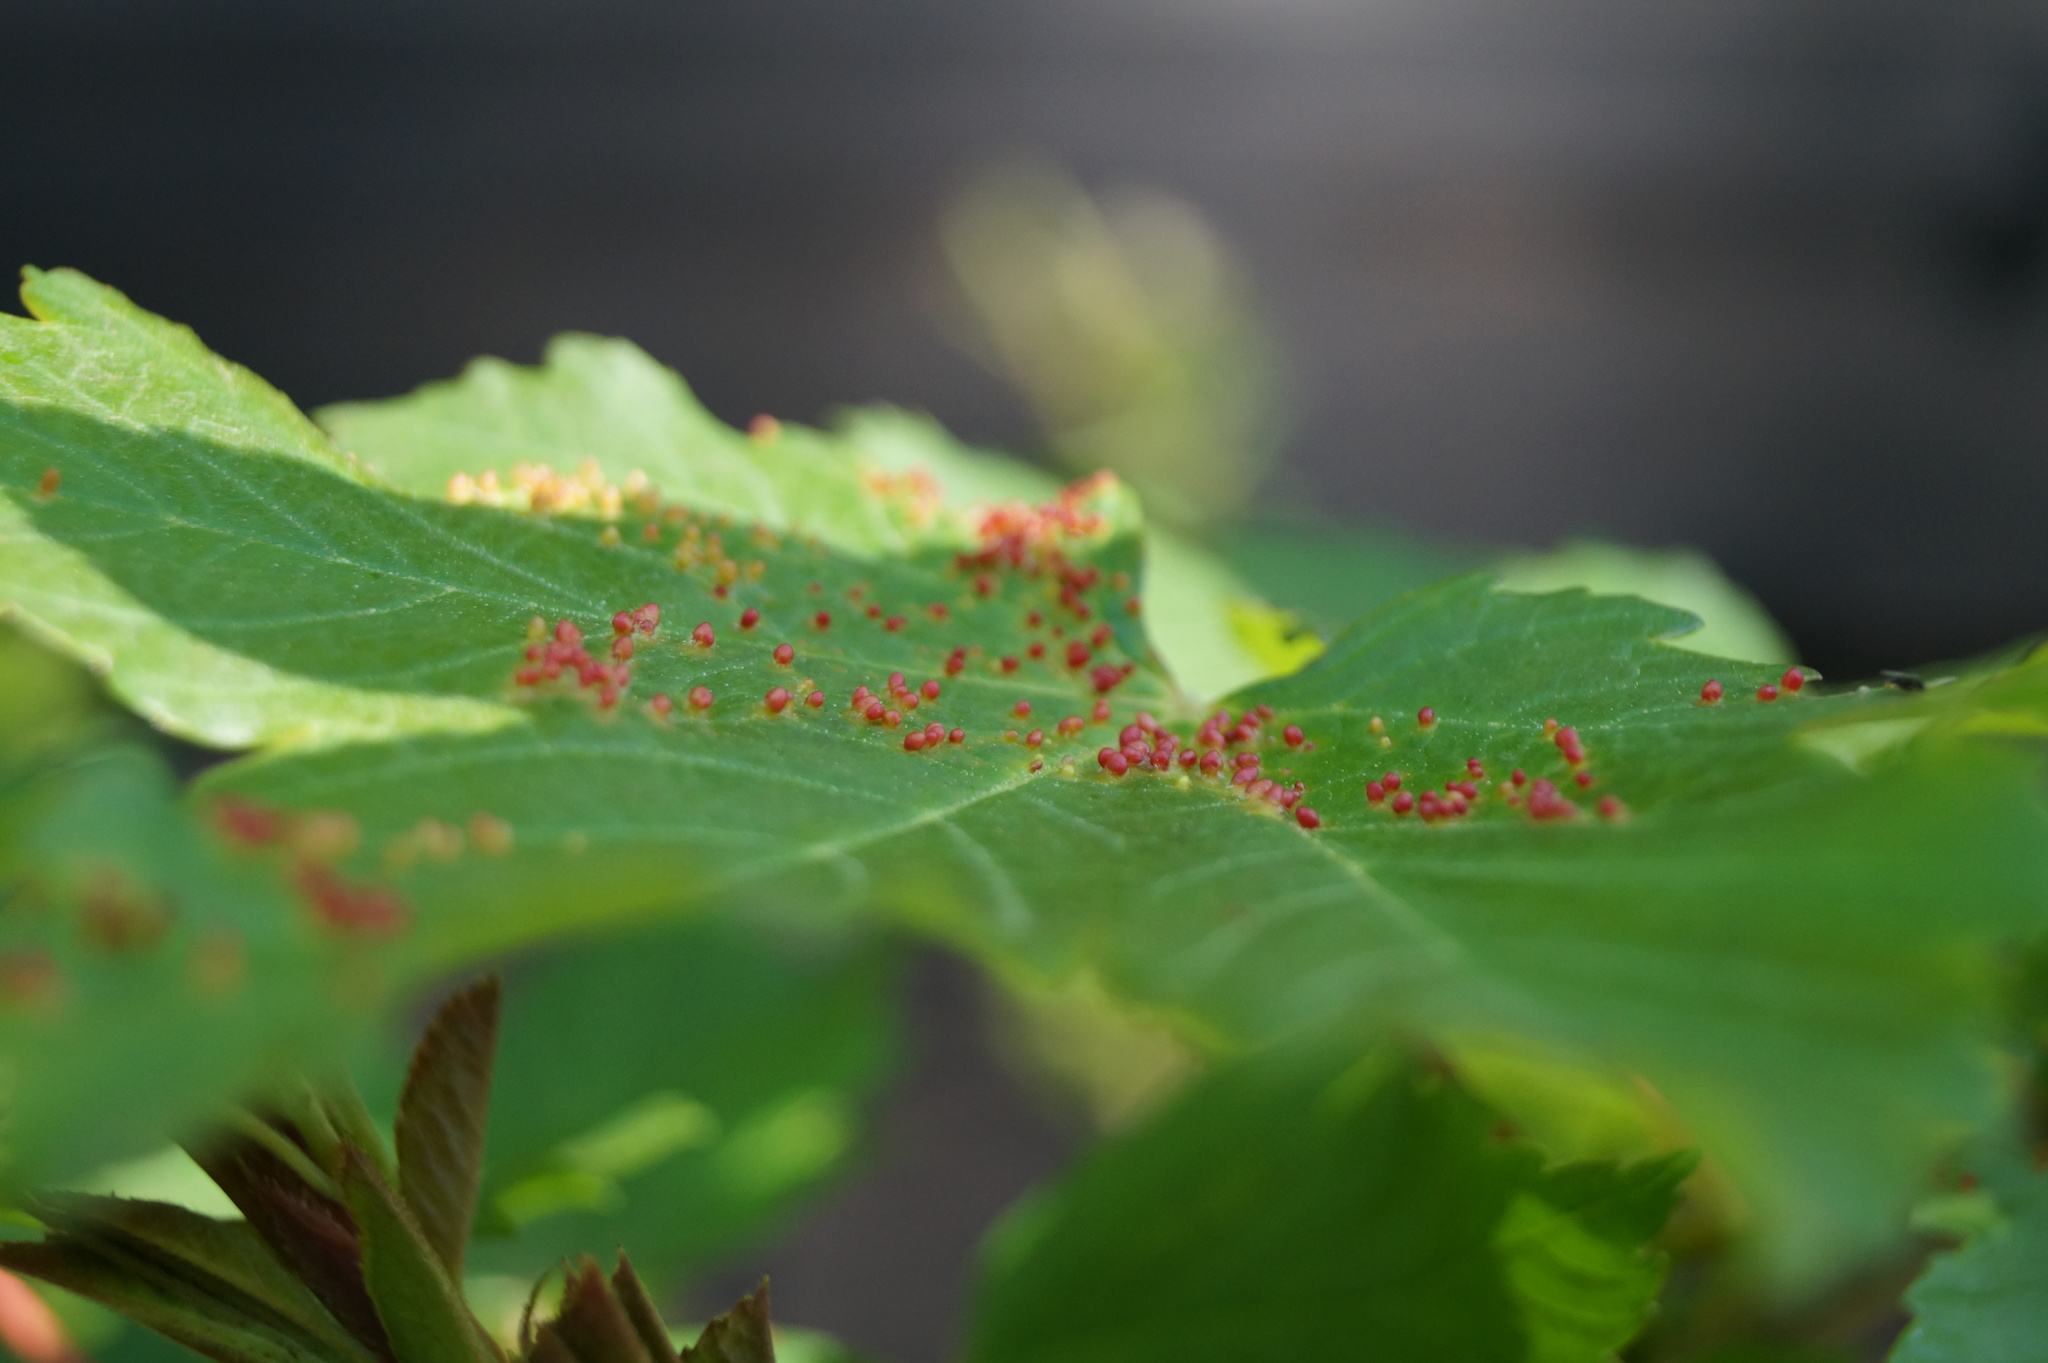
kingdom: Animalia
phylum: Arthropoda
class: Arachnida
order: Trombidiformes
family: Eriophyidae
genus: Aceria
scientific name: Aceria cephaloneus
